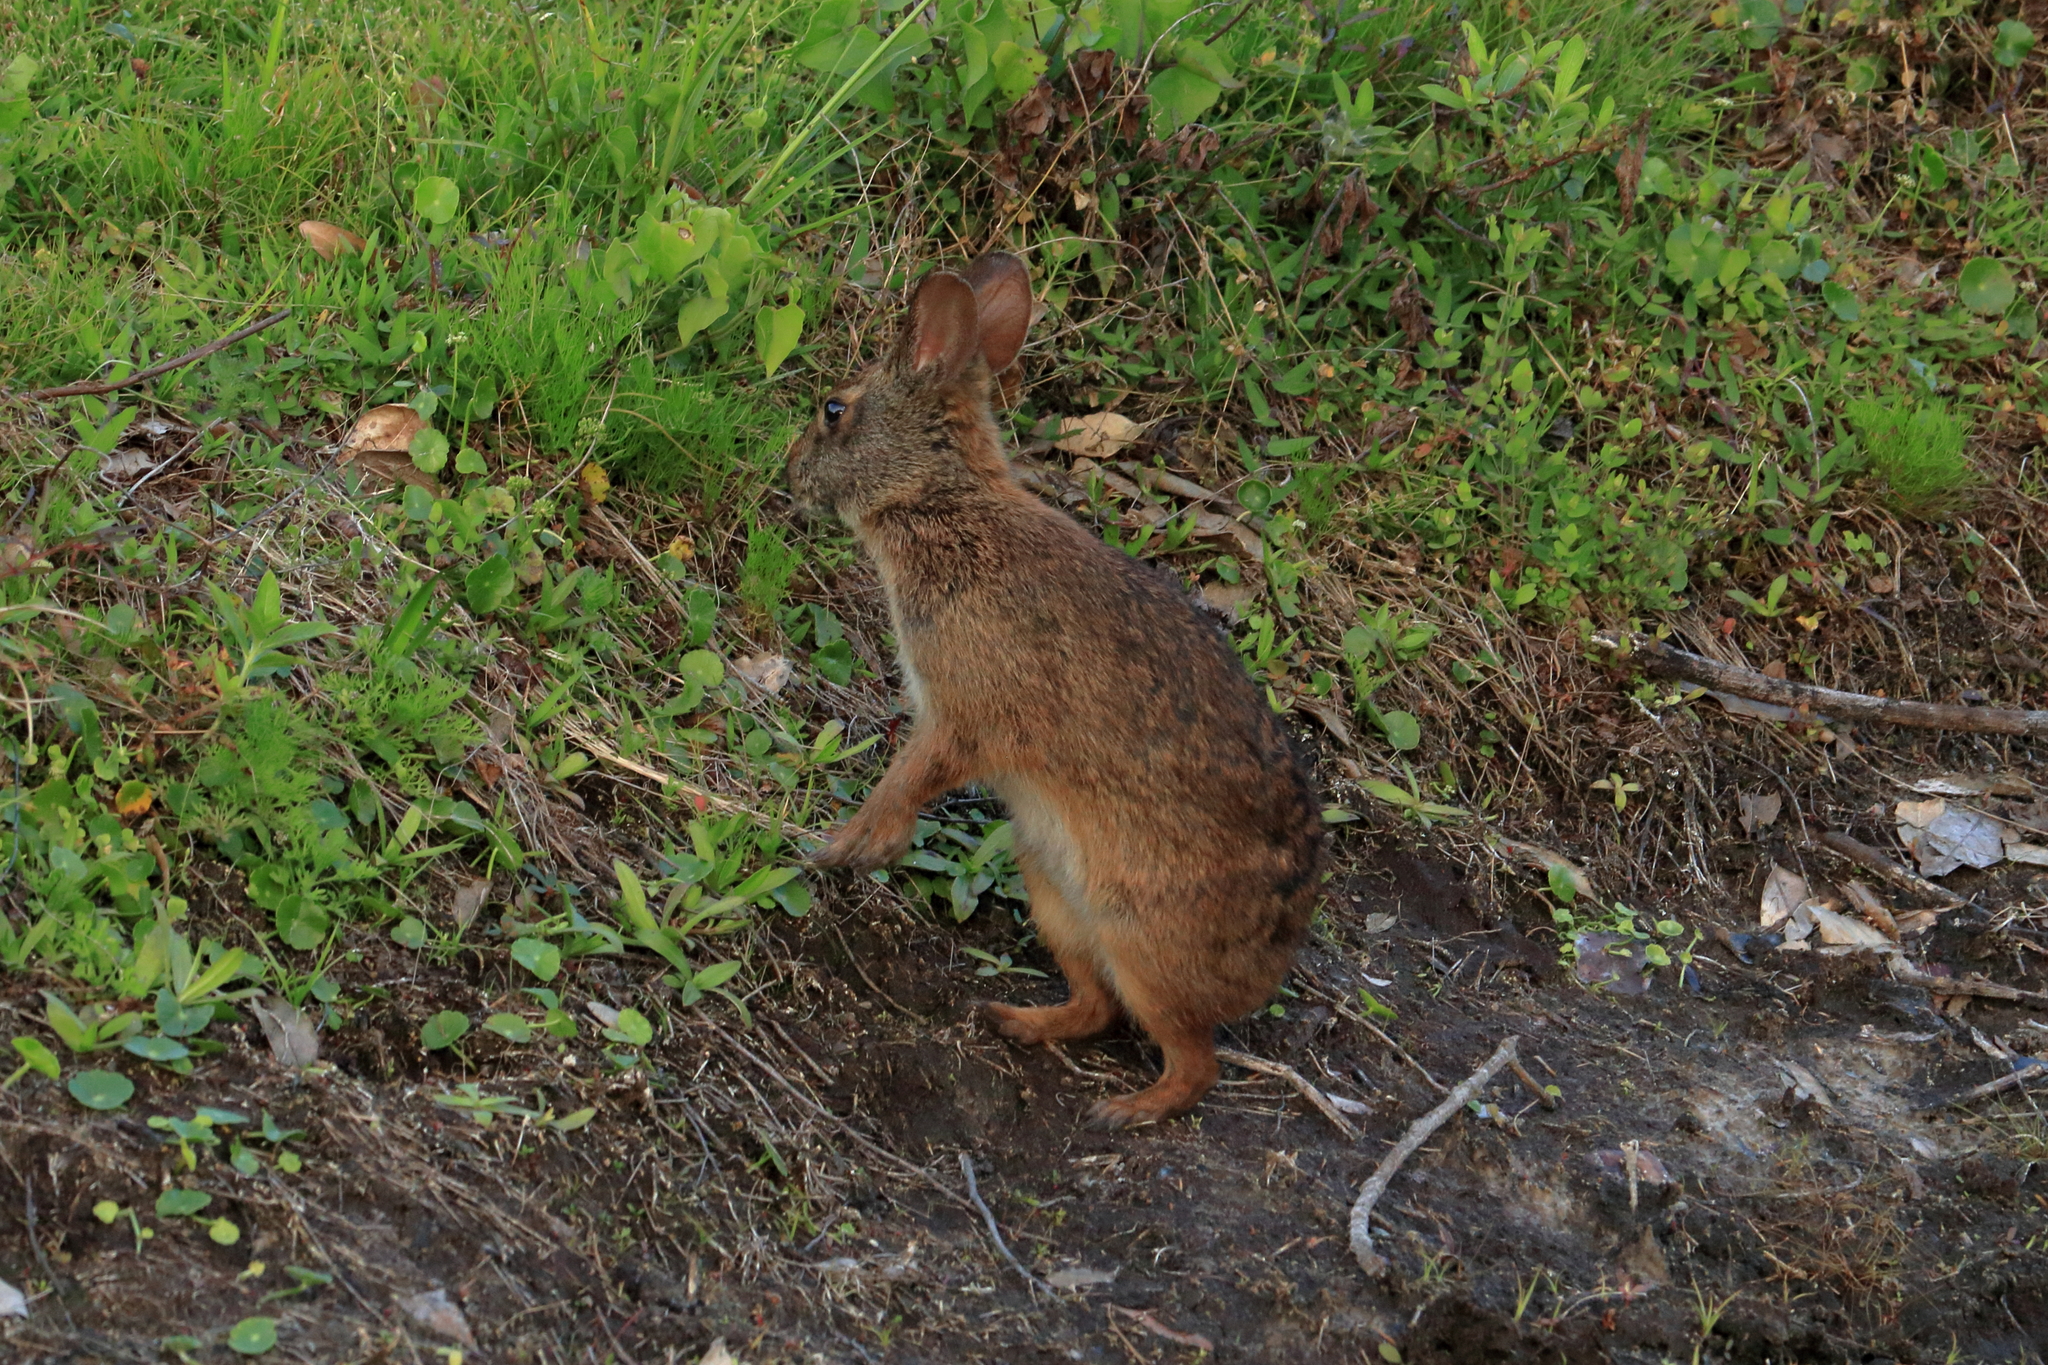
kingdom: Animalia
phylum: Chordata
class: Mammalia
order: Lagomorpha
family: Leporidae
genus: Sylvilagus
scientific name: Sylvilagus palustris
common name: Marsh rabbit
